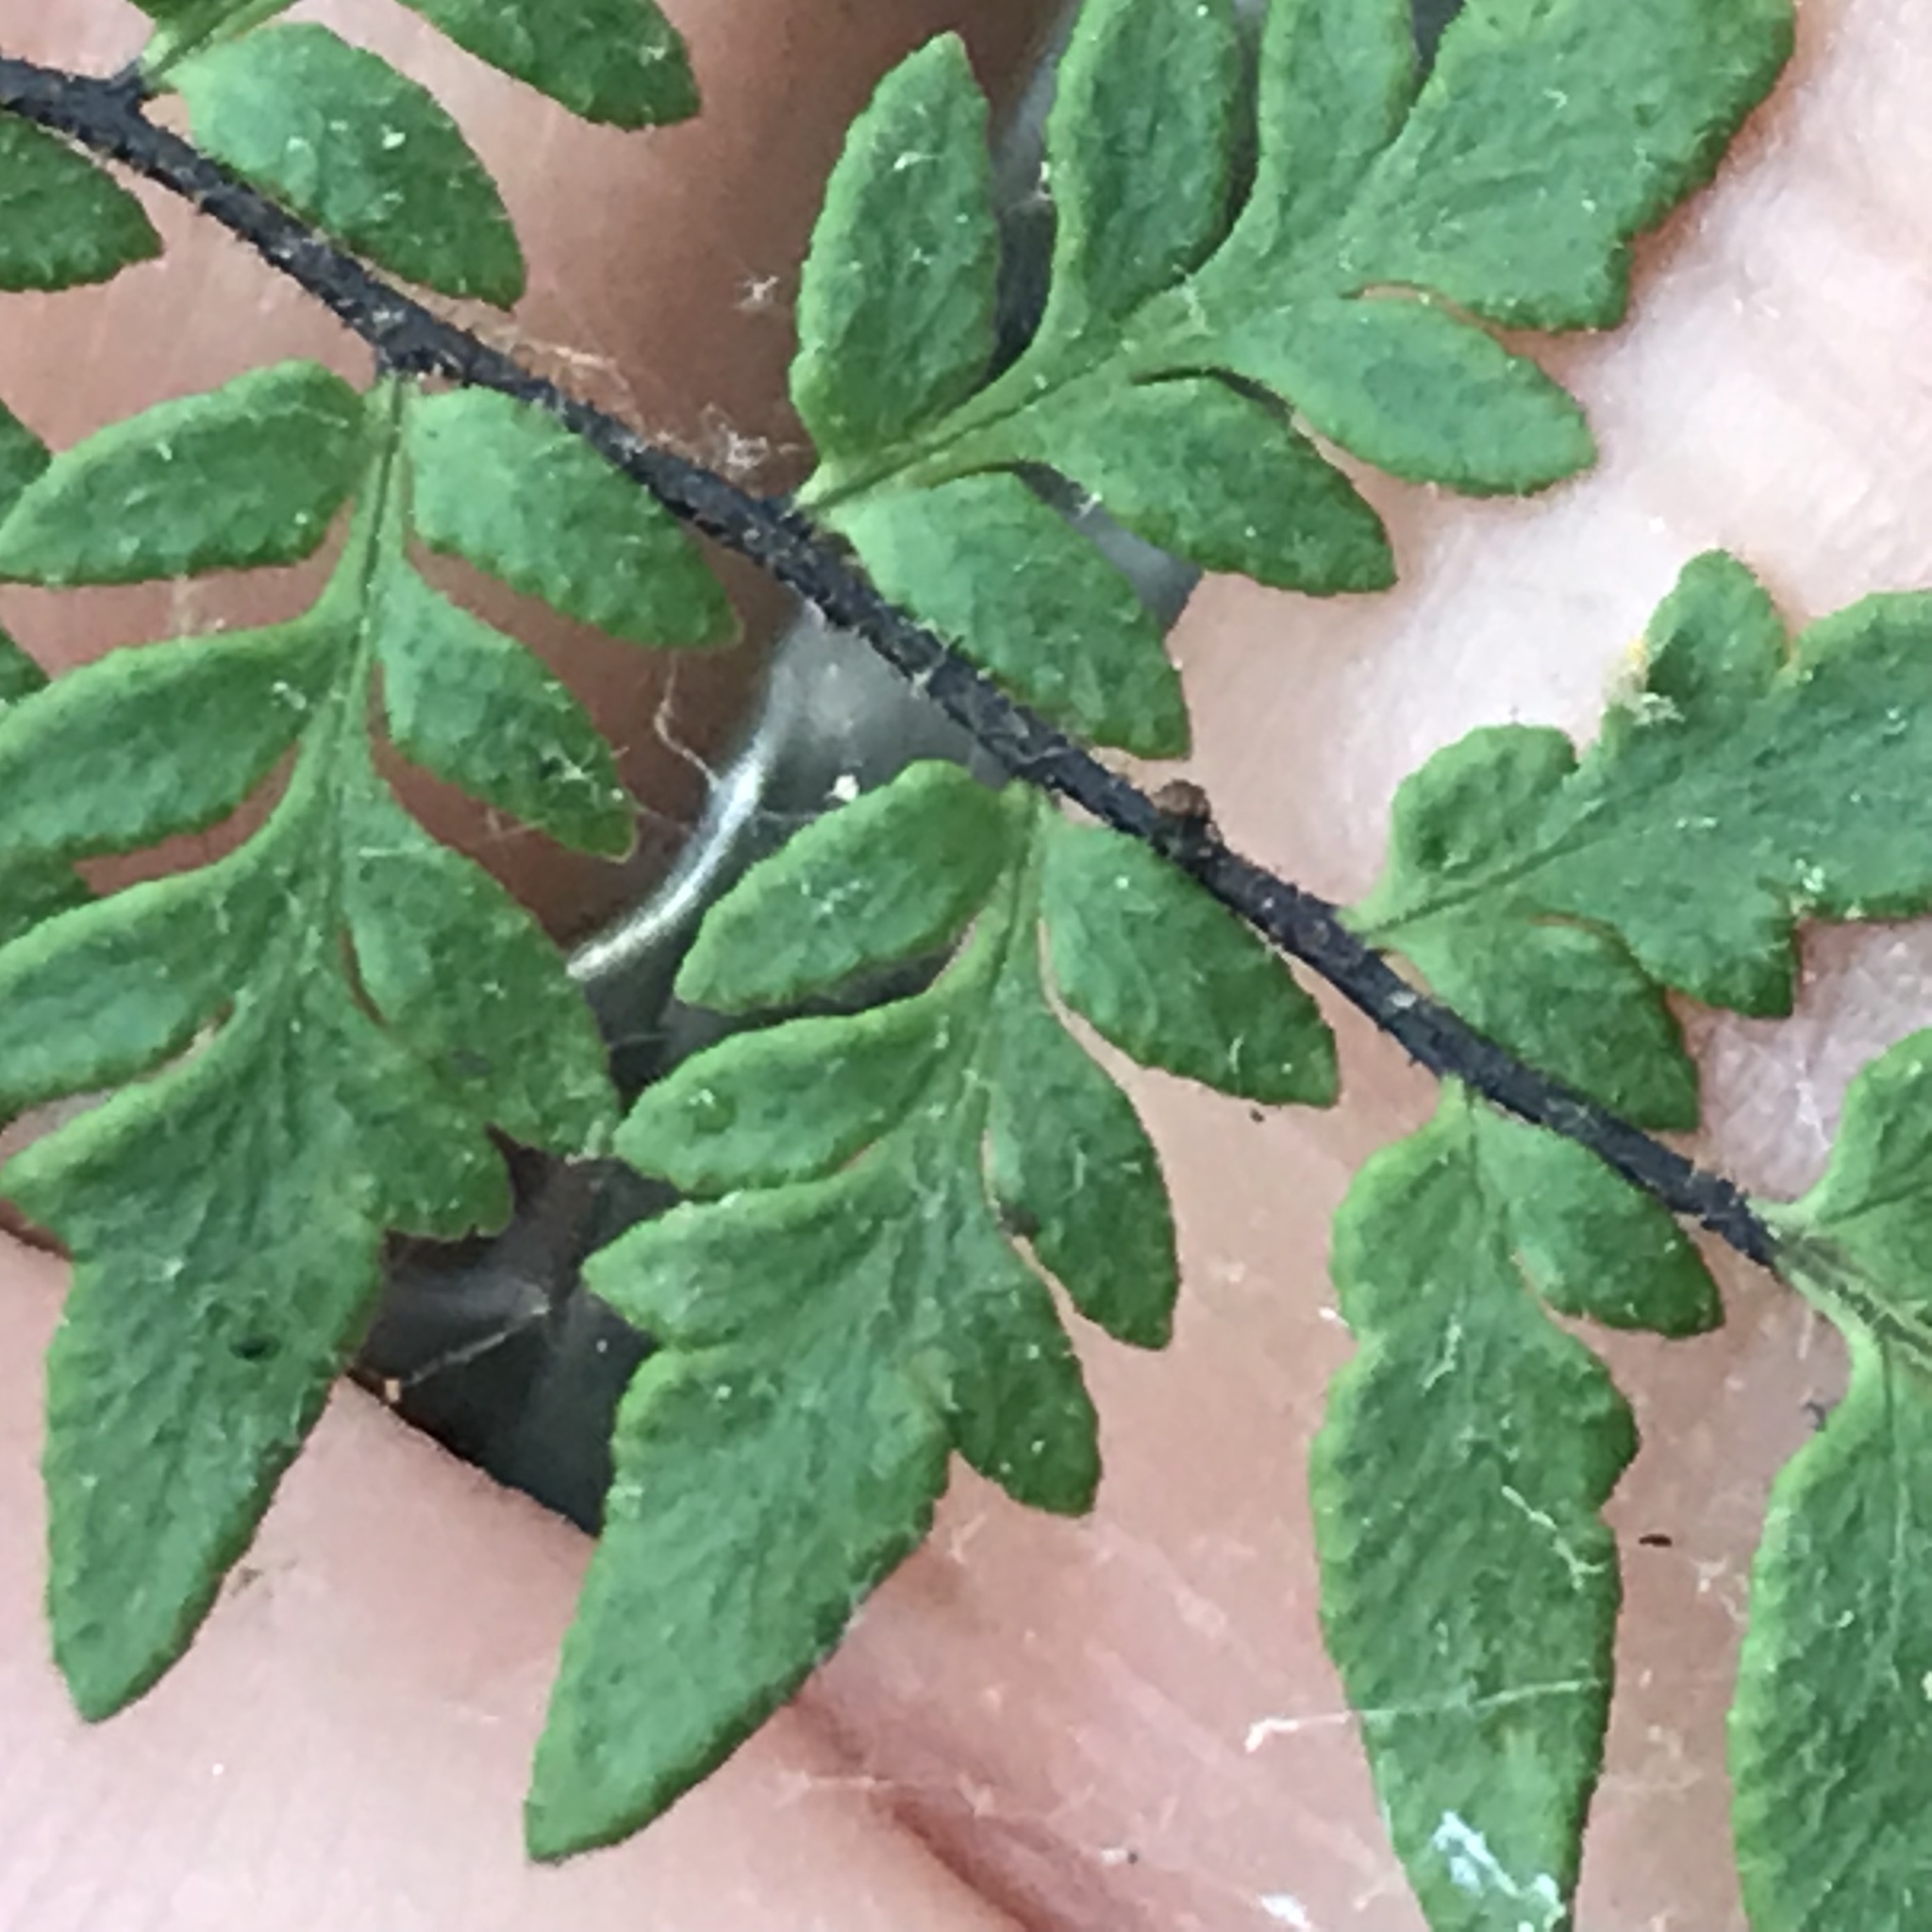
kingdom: Plantae
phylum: Tracheophyta
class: Polypodiopsida
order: Polypodiales
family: Pteridaceae
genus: Myriopteris
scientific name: Myriopteris alabamensis
